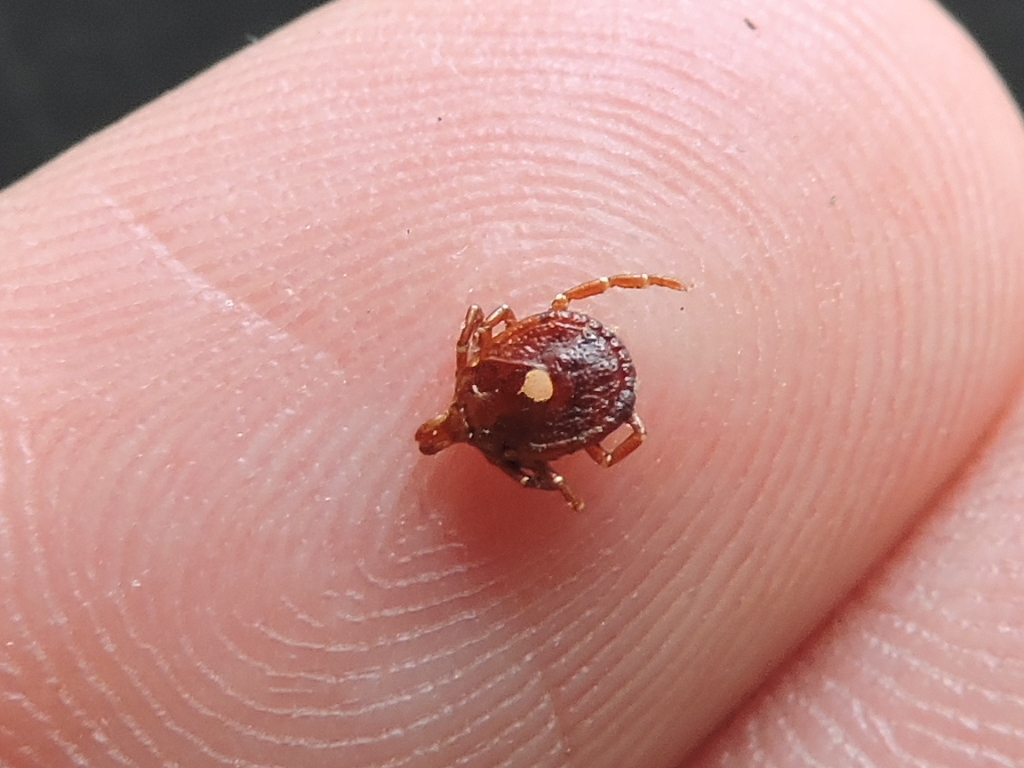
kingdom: Animalia
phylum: Arthropoda
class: Arachnida
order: Ixodida
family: Ixodidae
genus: Amblyomma
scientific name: Amblyomma americanum
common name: Lone star tick
